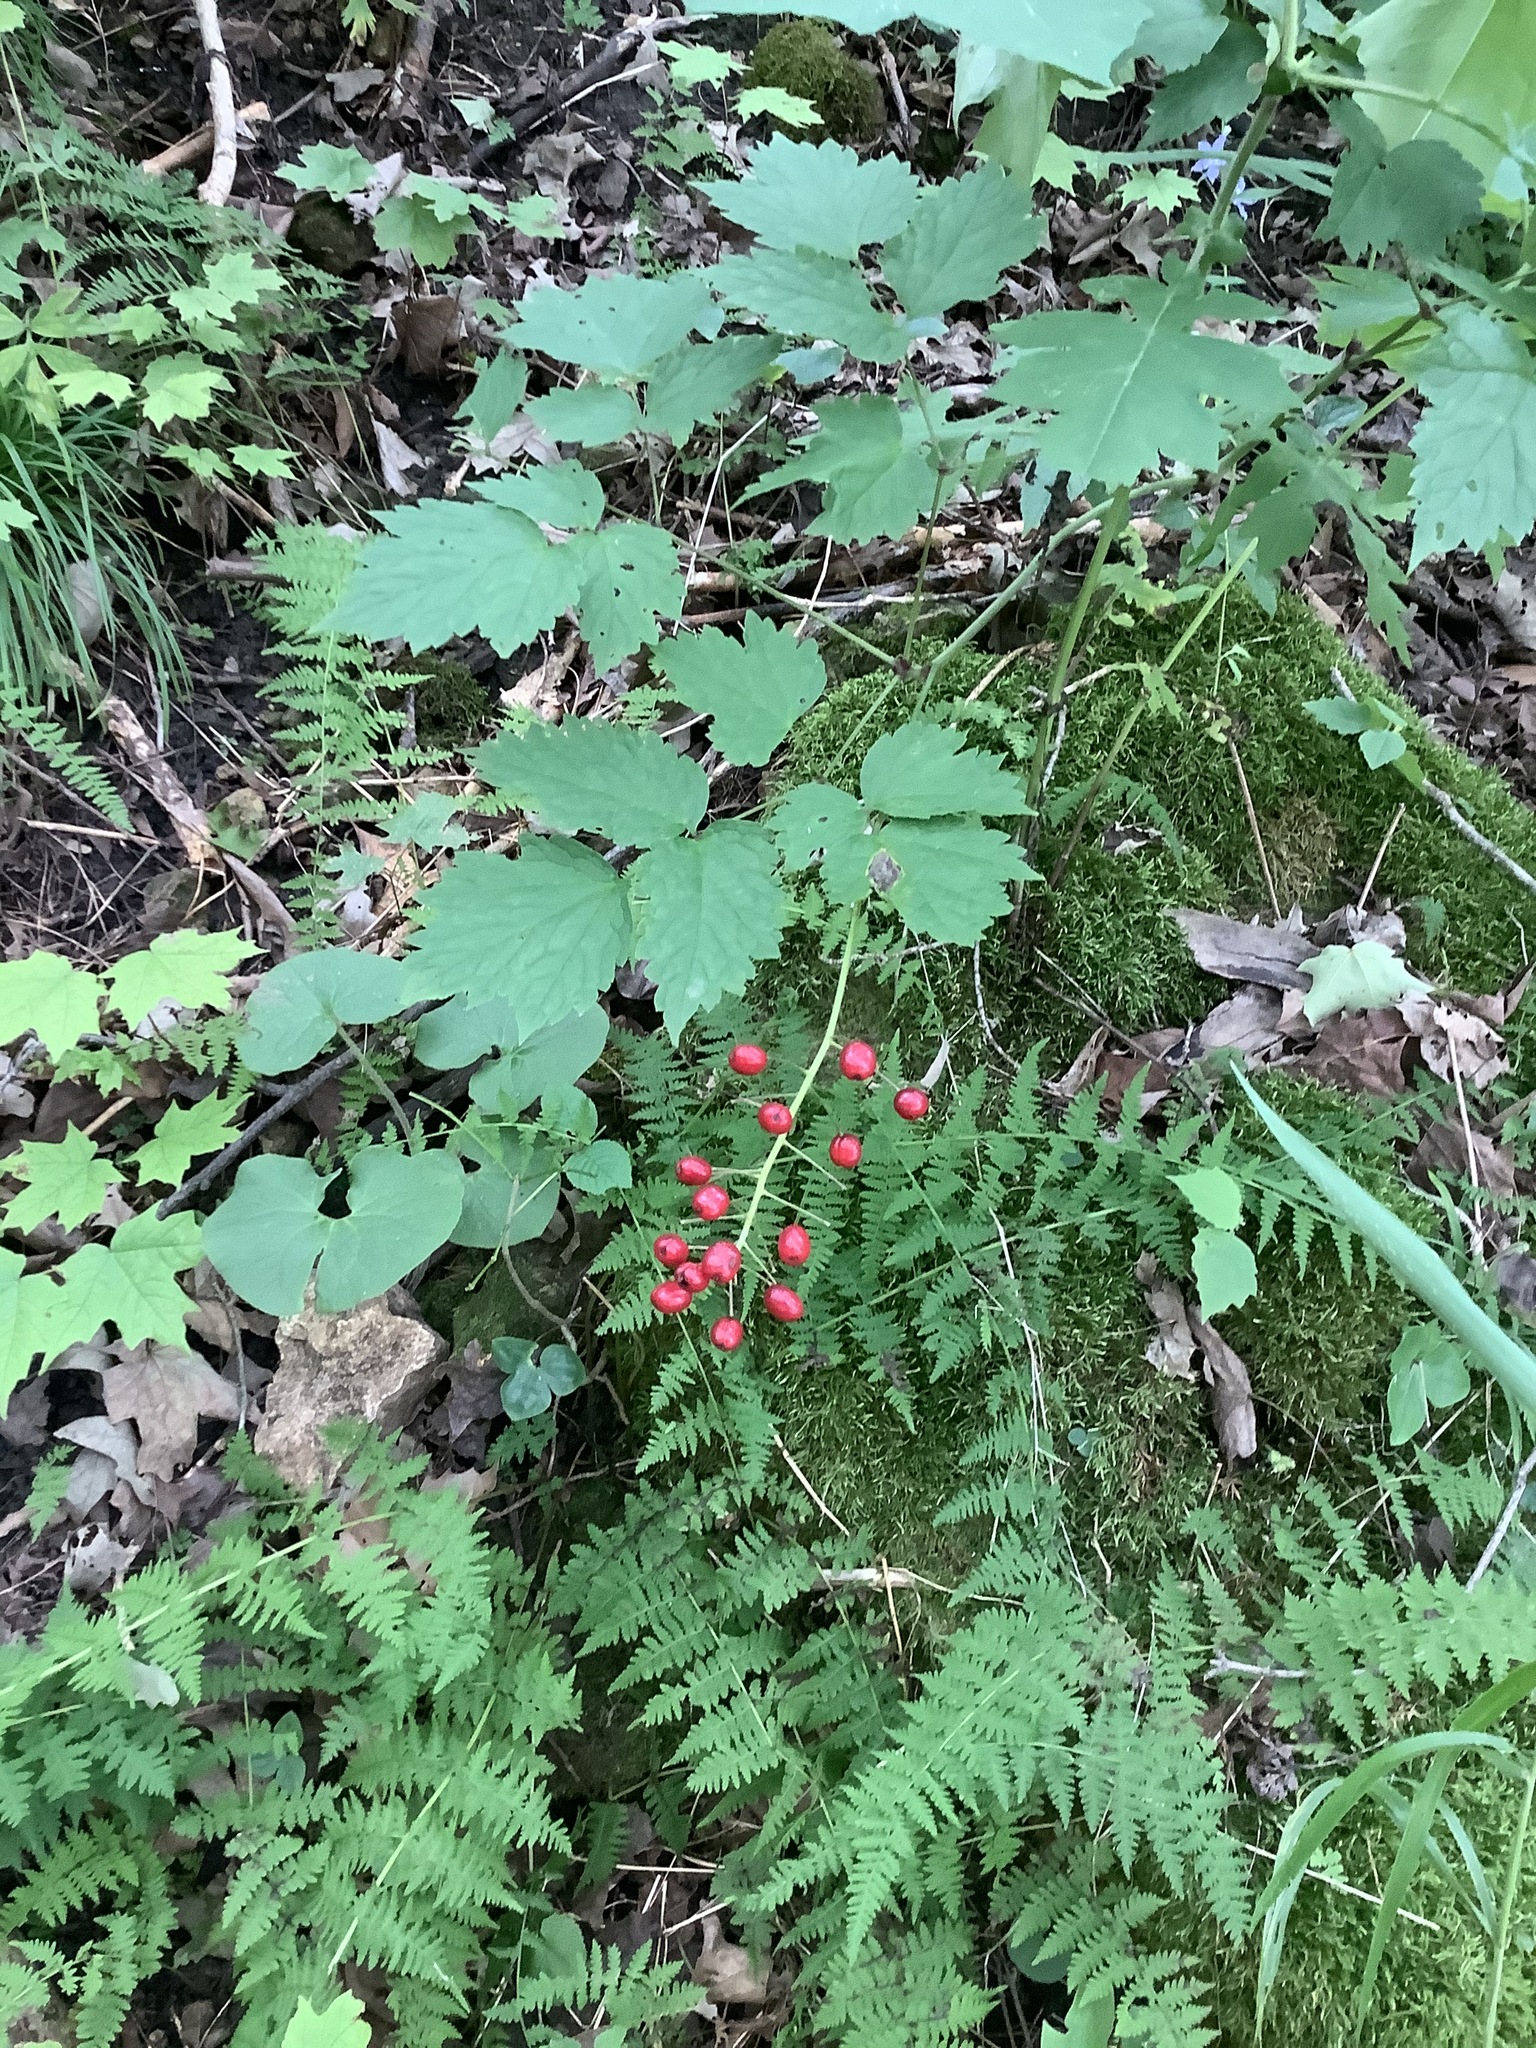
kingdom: Plantae
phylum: Tracheophyta
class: Magnoliopsida
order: Ranunculales
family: Ranunculaceae
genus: Actaea
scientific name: Actaea rubra
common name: Red baneberry
